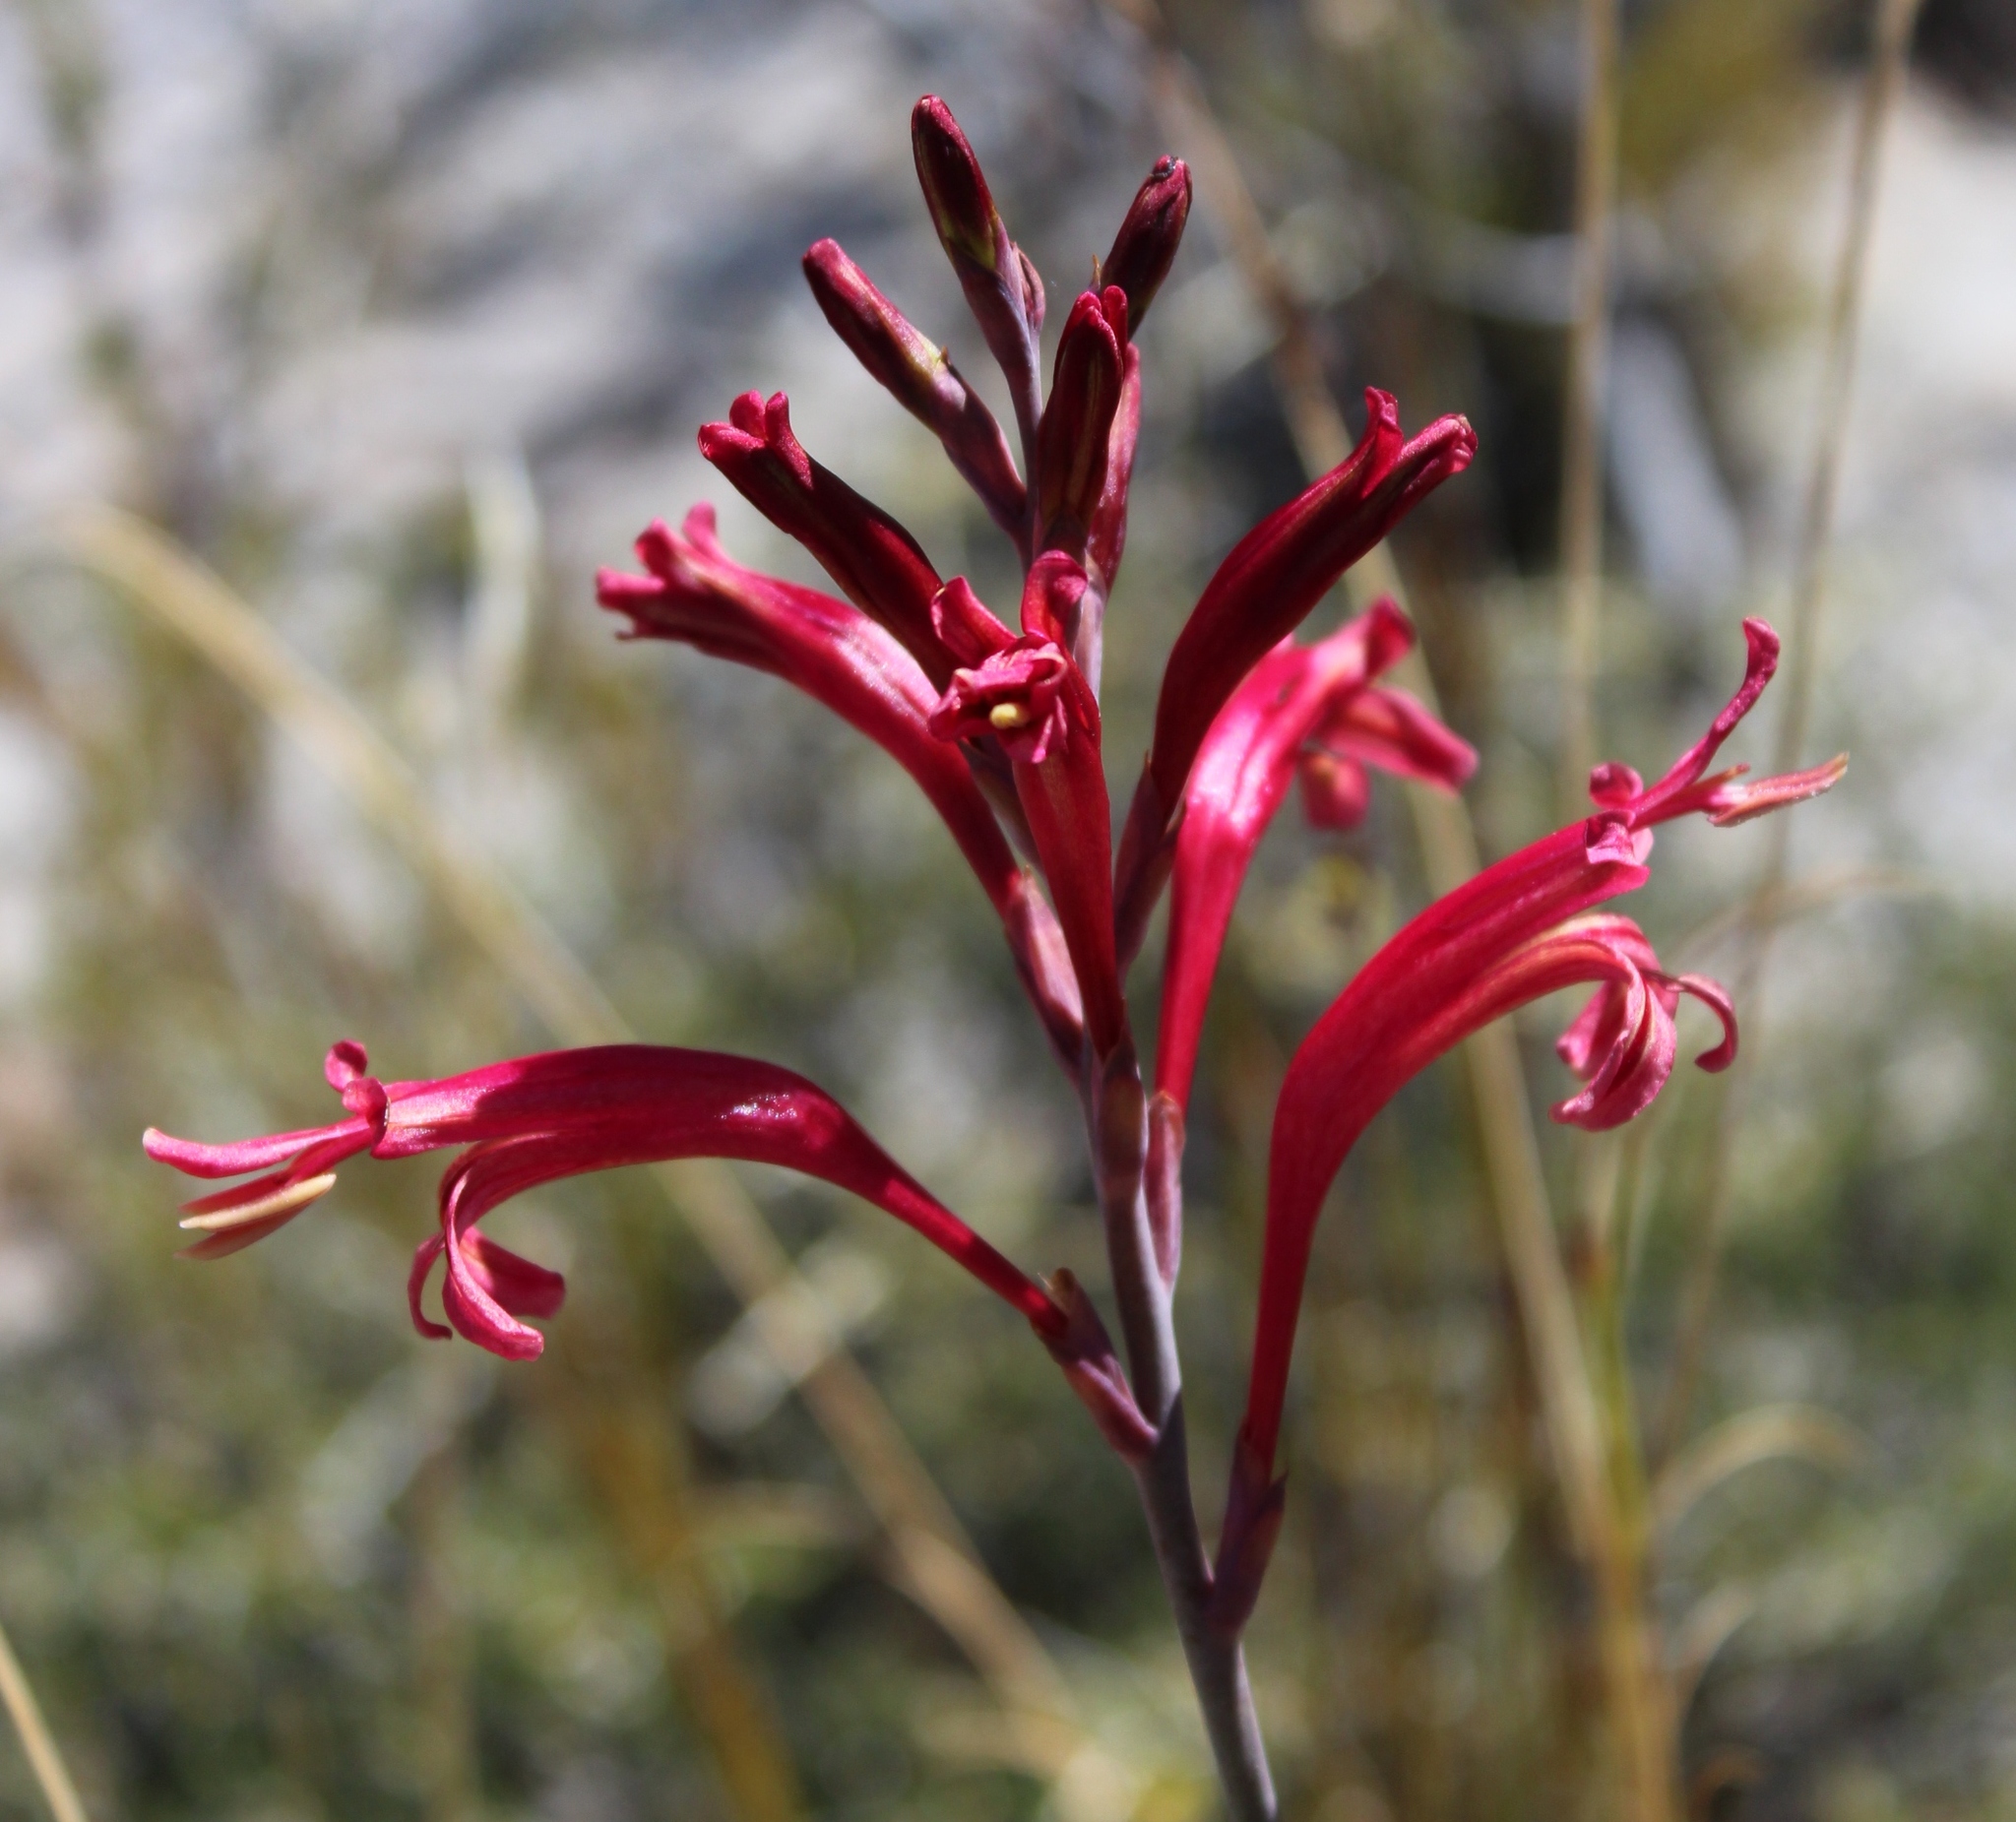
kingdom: Plantae
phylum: Tracheophyta
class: Liliopsida
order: Asparagales
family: Iridaceae
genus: Tritoniopsis
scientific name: Tritoniopsis antholyza
